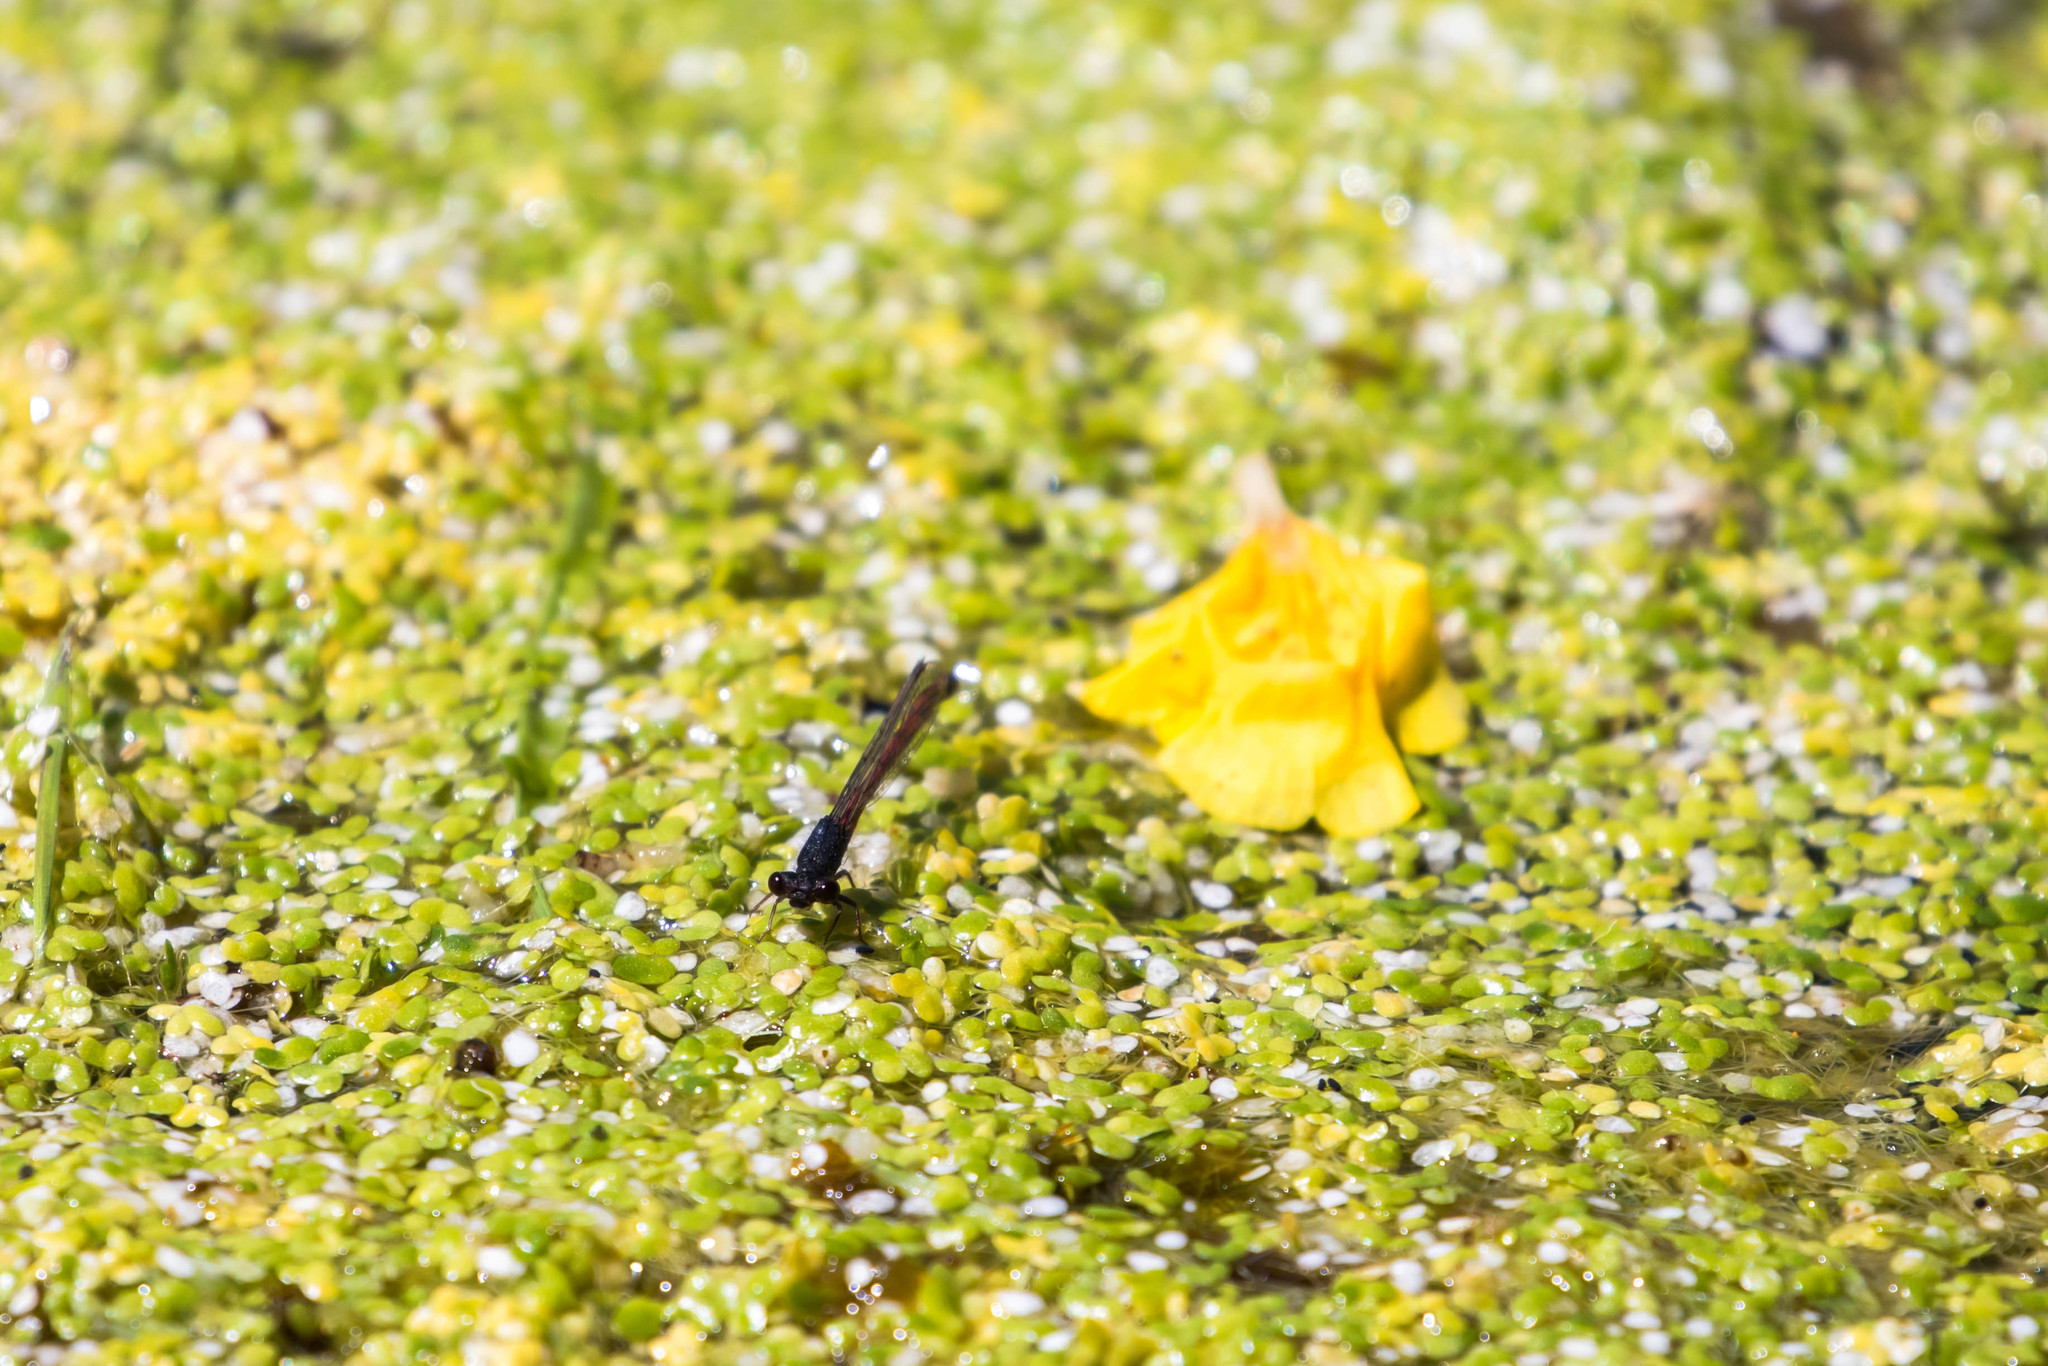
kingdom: Animalia
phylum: Arthropoda
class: Insecta
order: Odonata
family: Coenagrionidae
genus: Amphiagrion
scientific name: Amphiagrion abbreviatum
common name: Western red damsel
